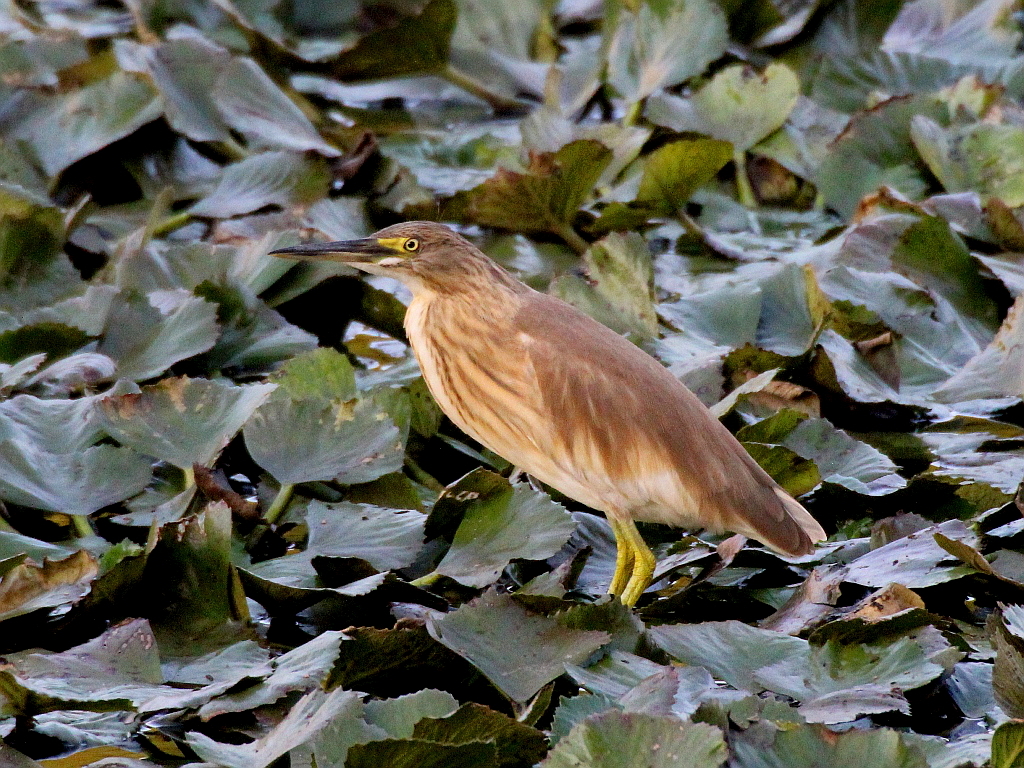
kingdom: Animalia
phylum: Chordata
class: Aves
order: Pelecaniformes
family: Ardeidae
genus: Ardeola
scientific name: Ardeola ralloides
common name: Squacco heron
